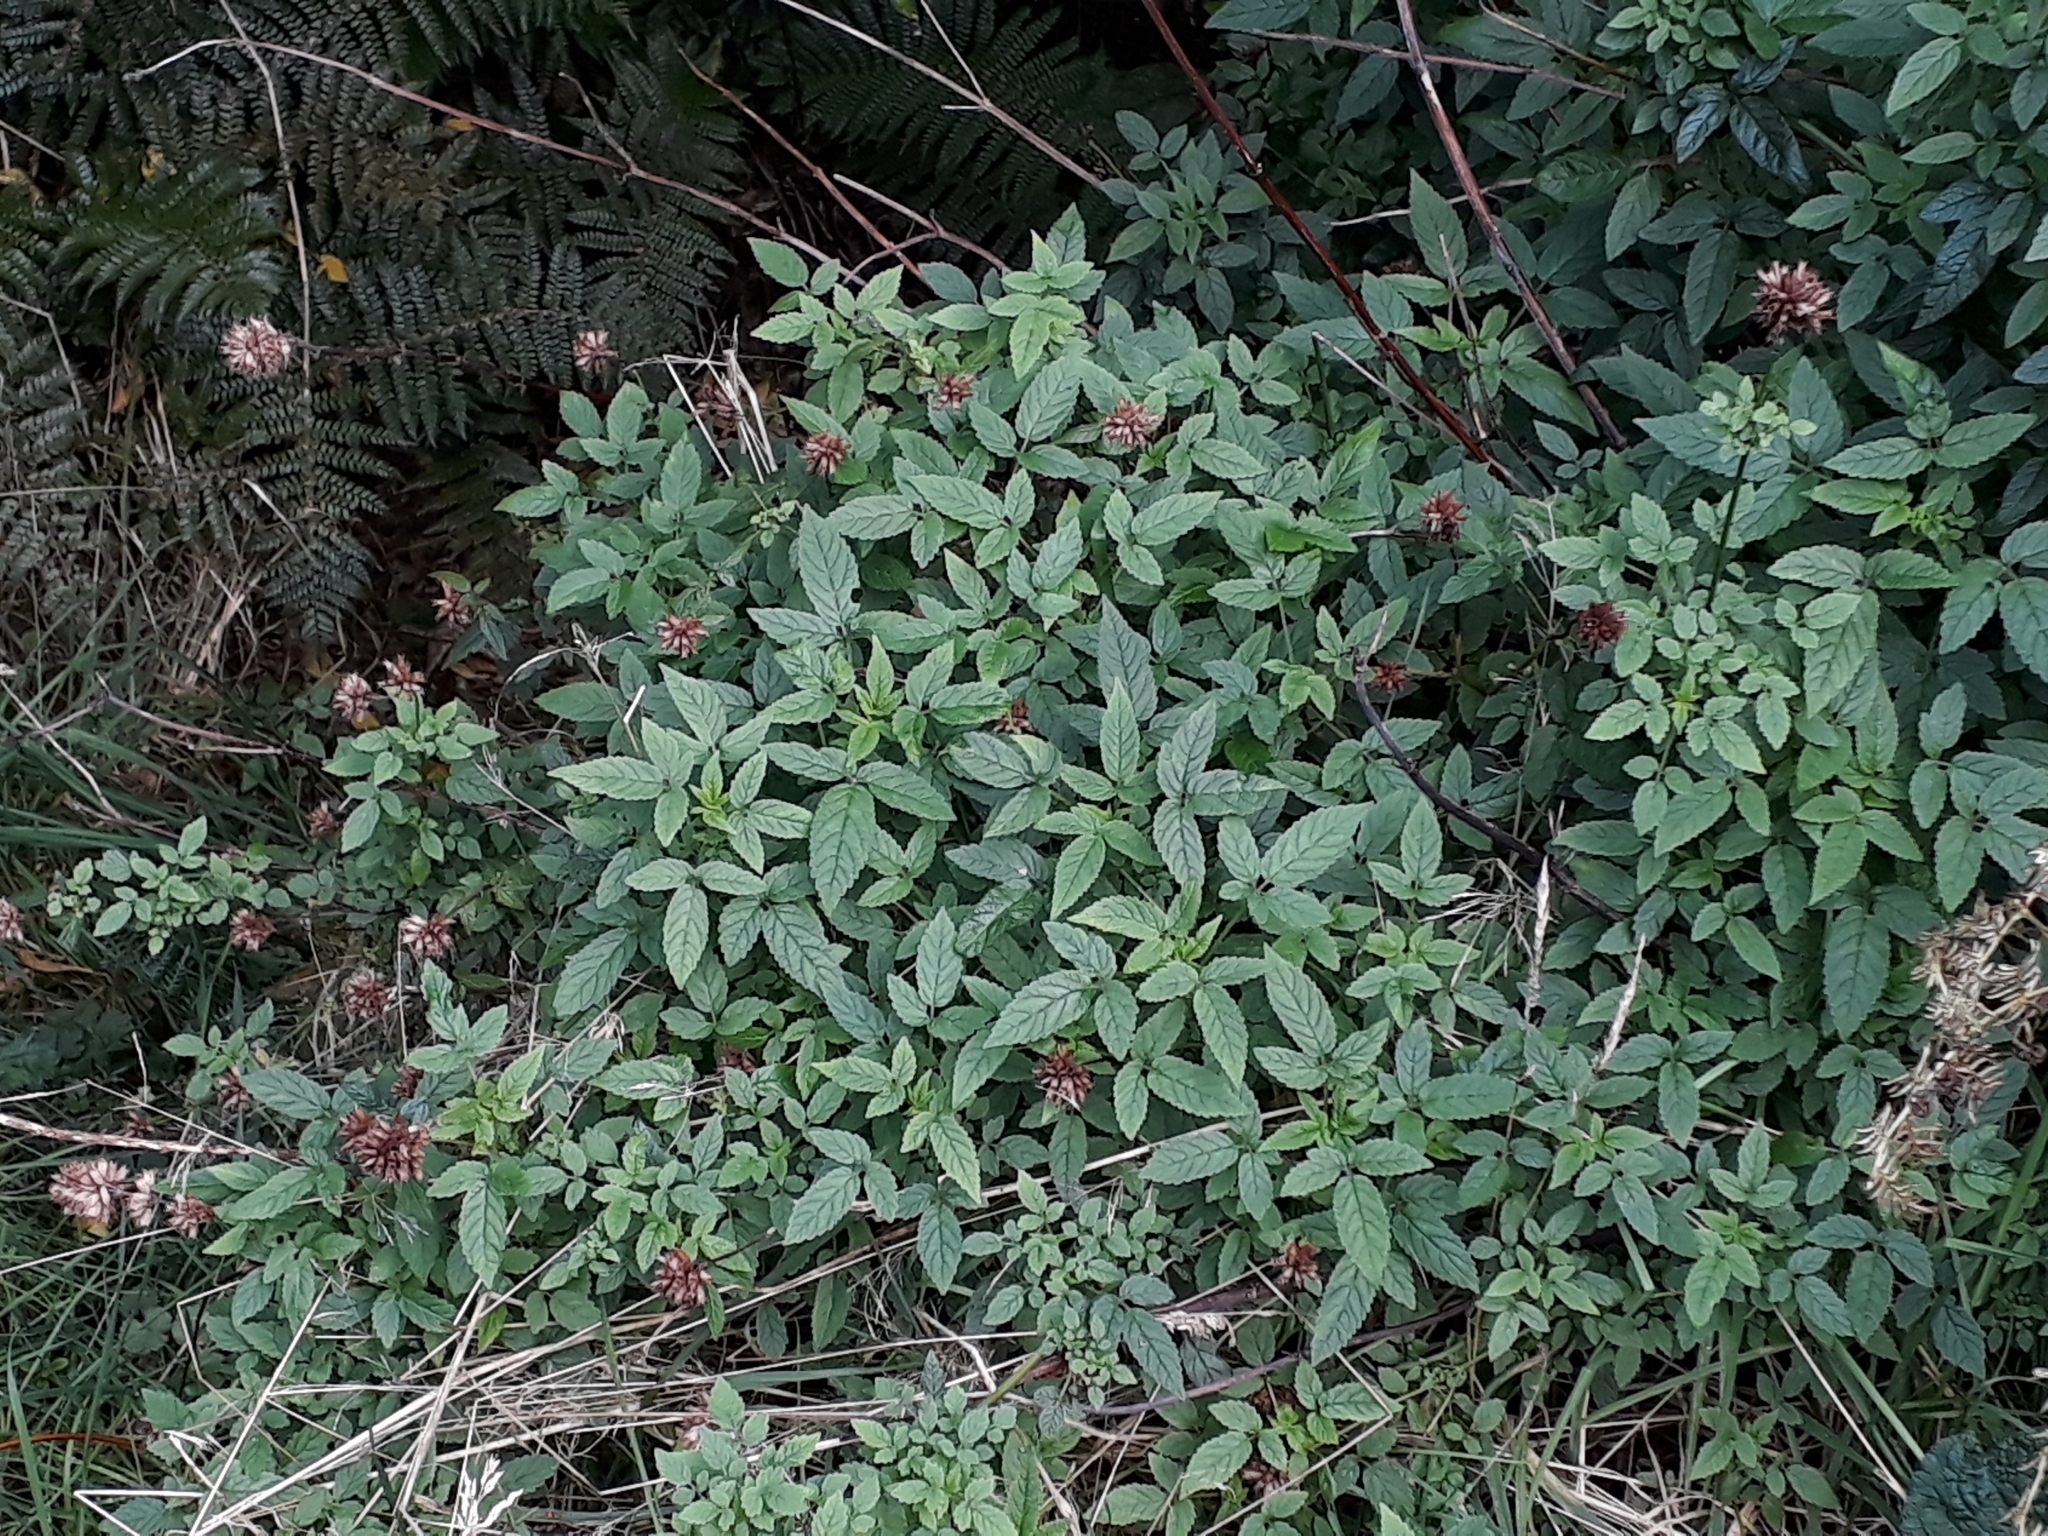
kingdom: Plantae
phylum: Tracheophyta
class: Magnoliopsida
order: Lamiales
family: Lamiaceae
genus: Cedronella
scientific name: Cedronella canariensis
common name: Canary islands balm
